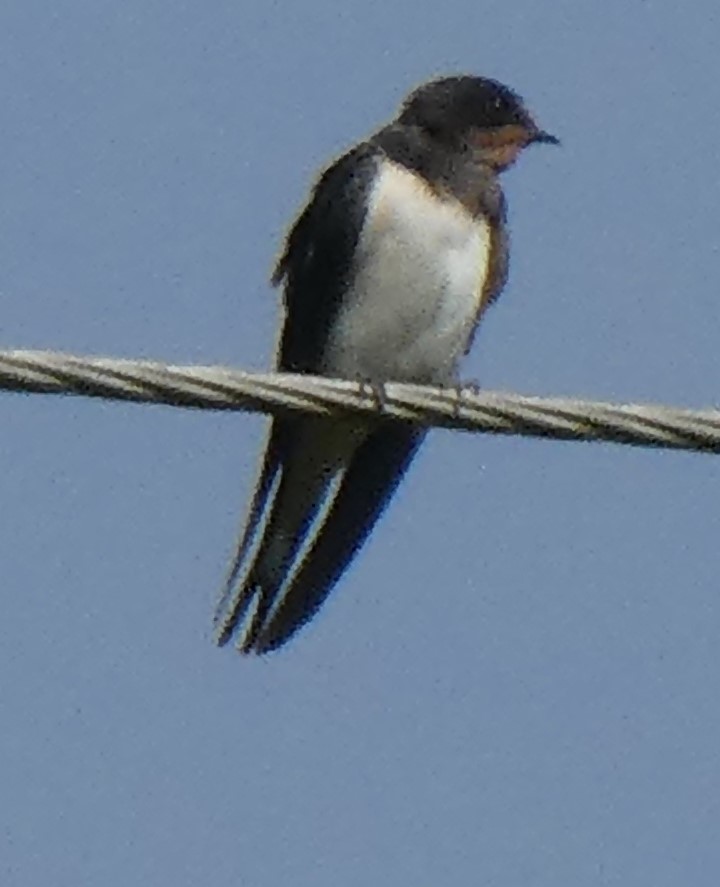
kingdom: Animalia
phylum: Chordata
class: Aves
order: Passeriformes
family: Hirundinidae
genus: Hirundo
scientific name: Hirundo rustica
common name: Barn swallow
